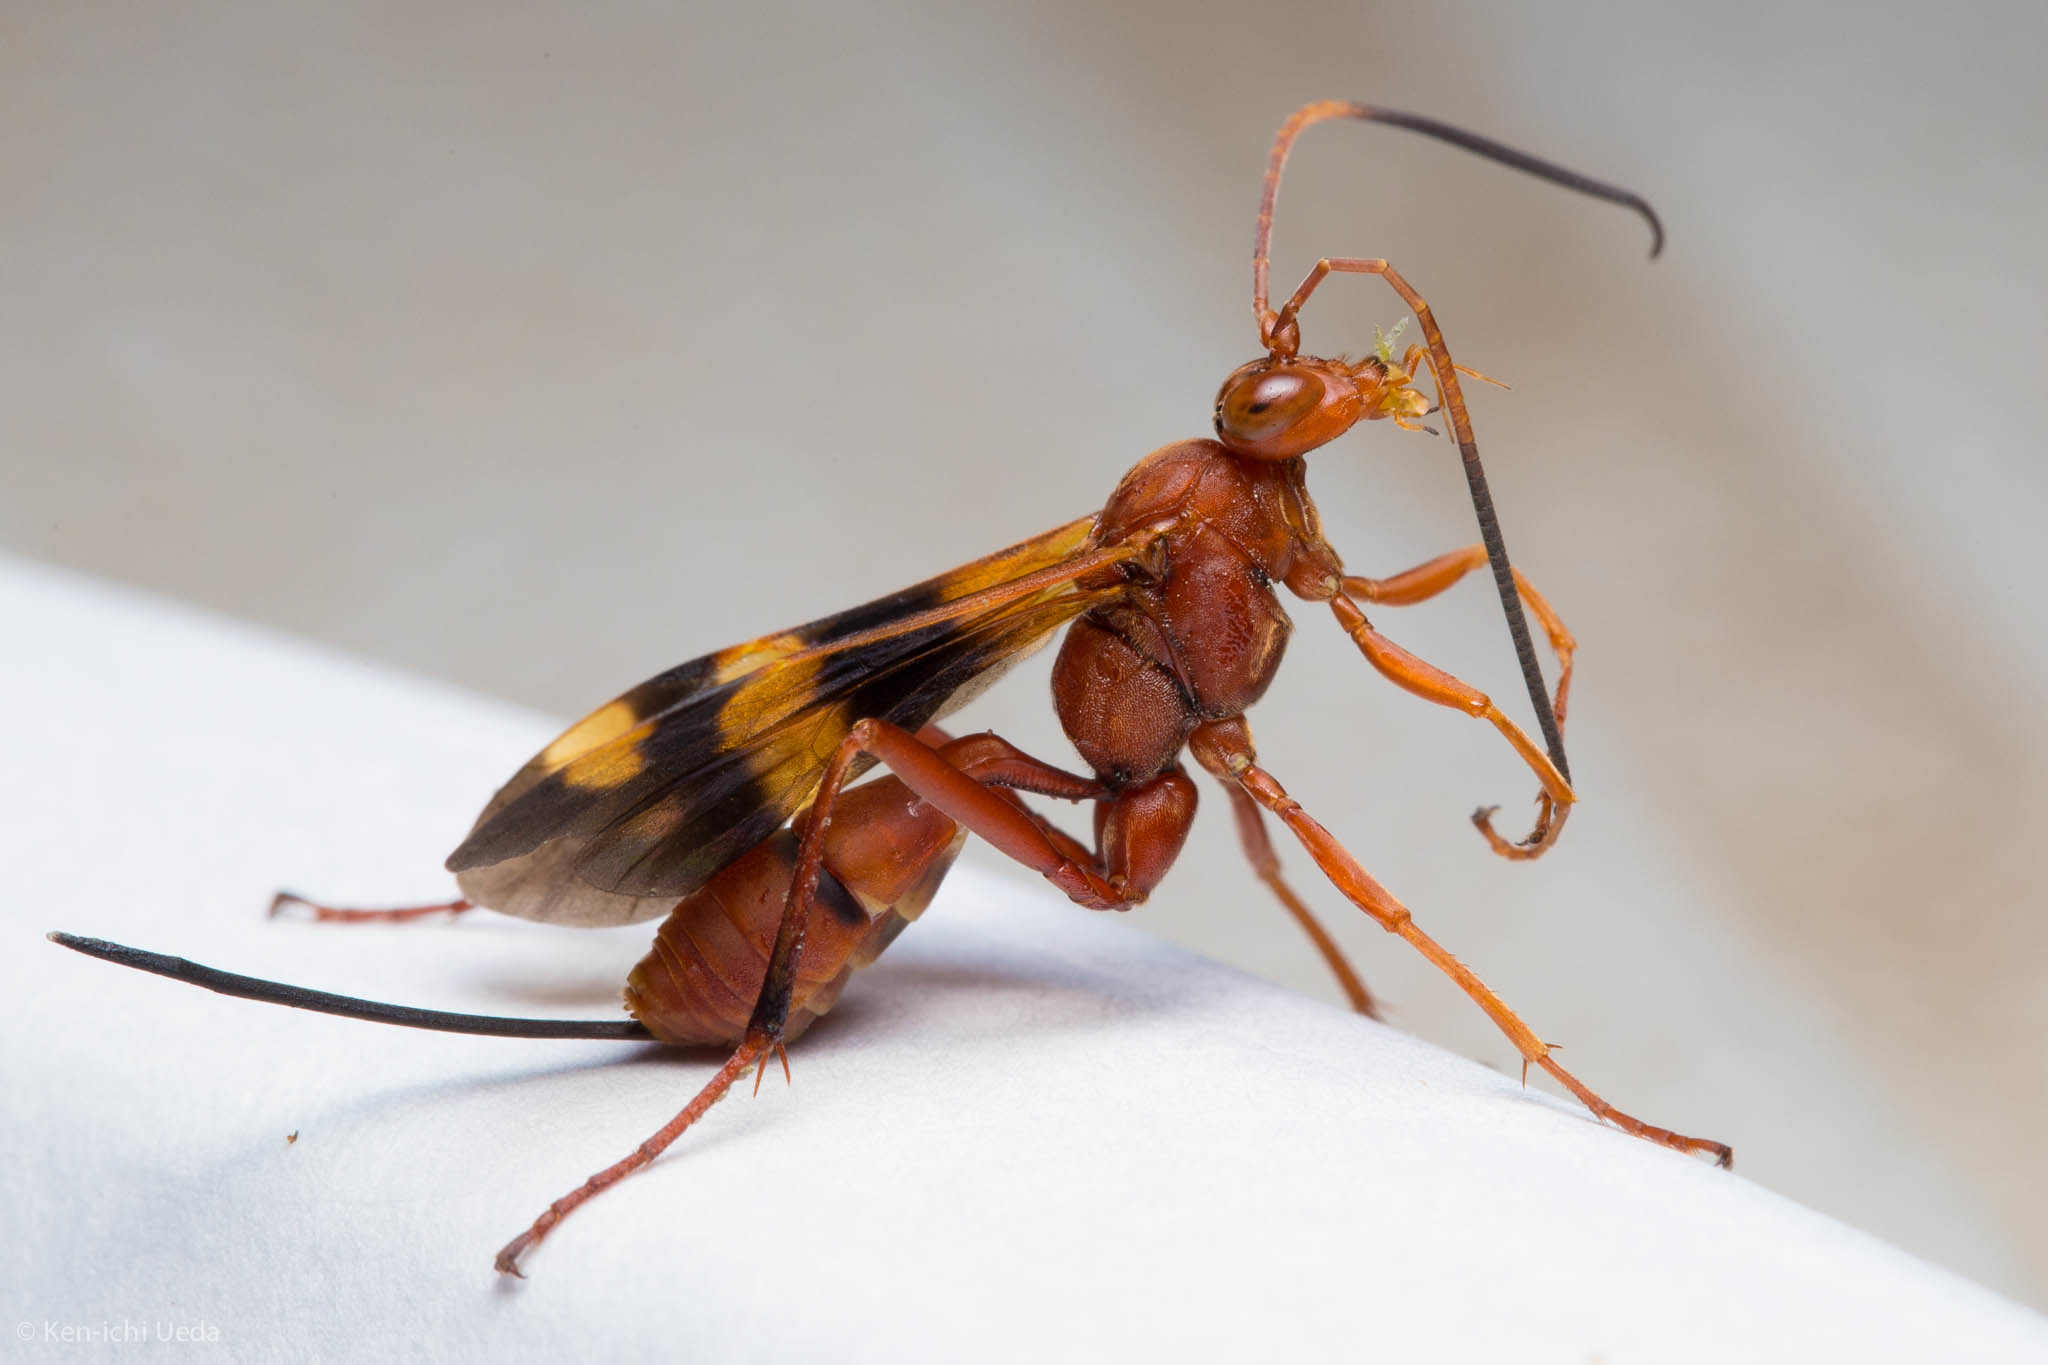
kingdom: Animalia
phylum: Arthropoda
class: Insecta
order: Hymenoptera
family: Ichneumonidae
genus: Compsocryptus
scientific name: Compsocryptus texensis
